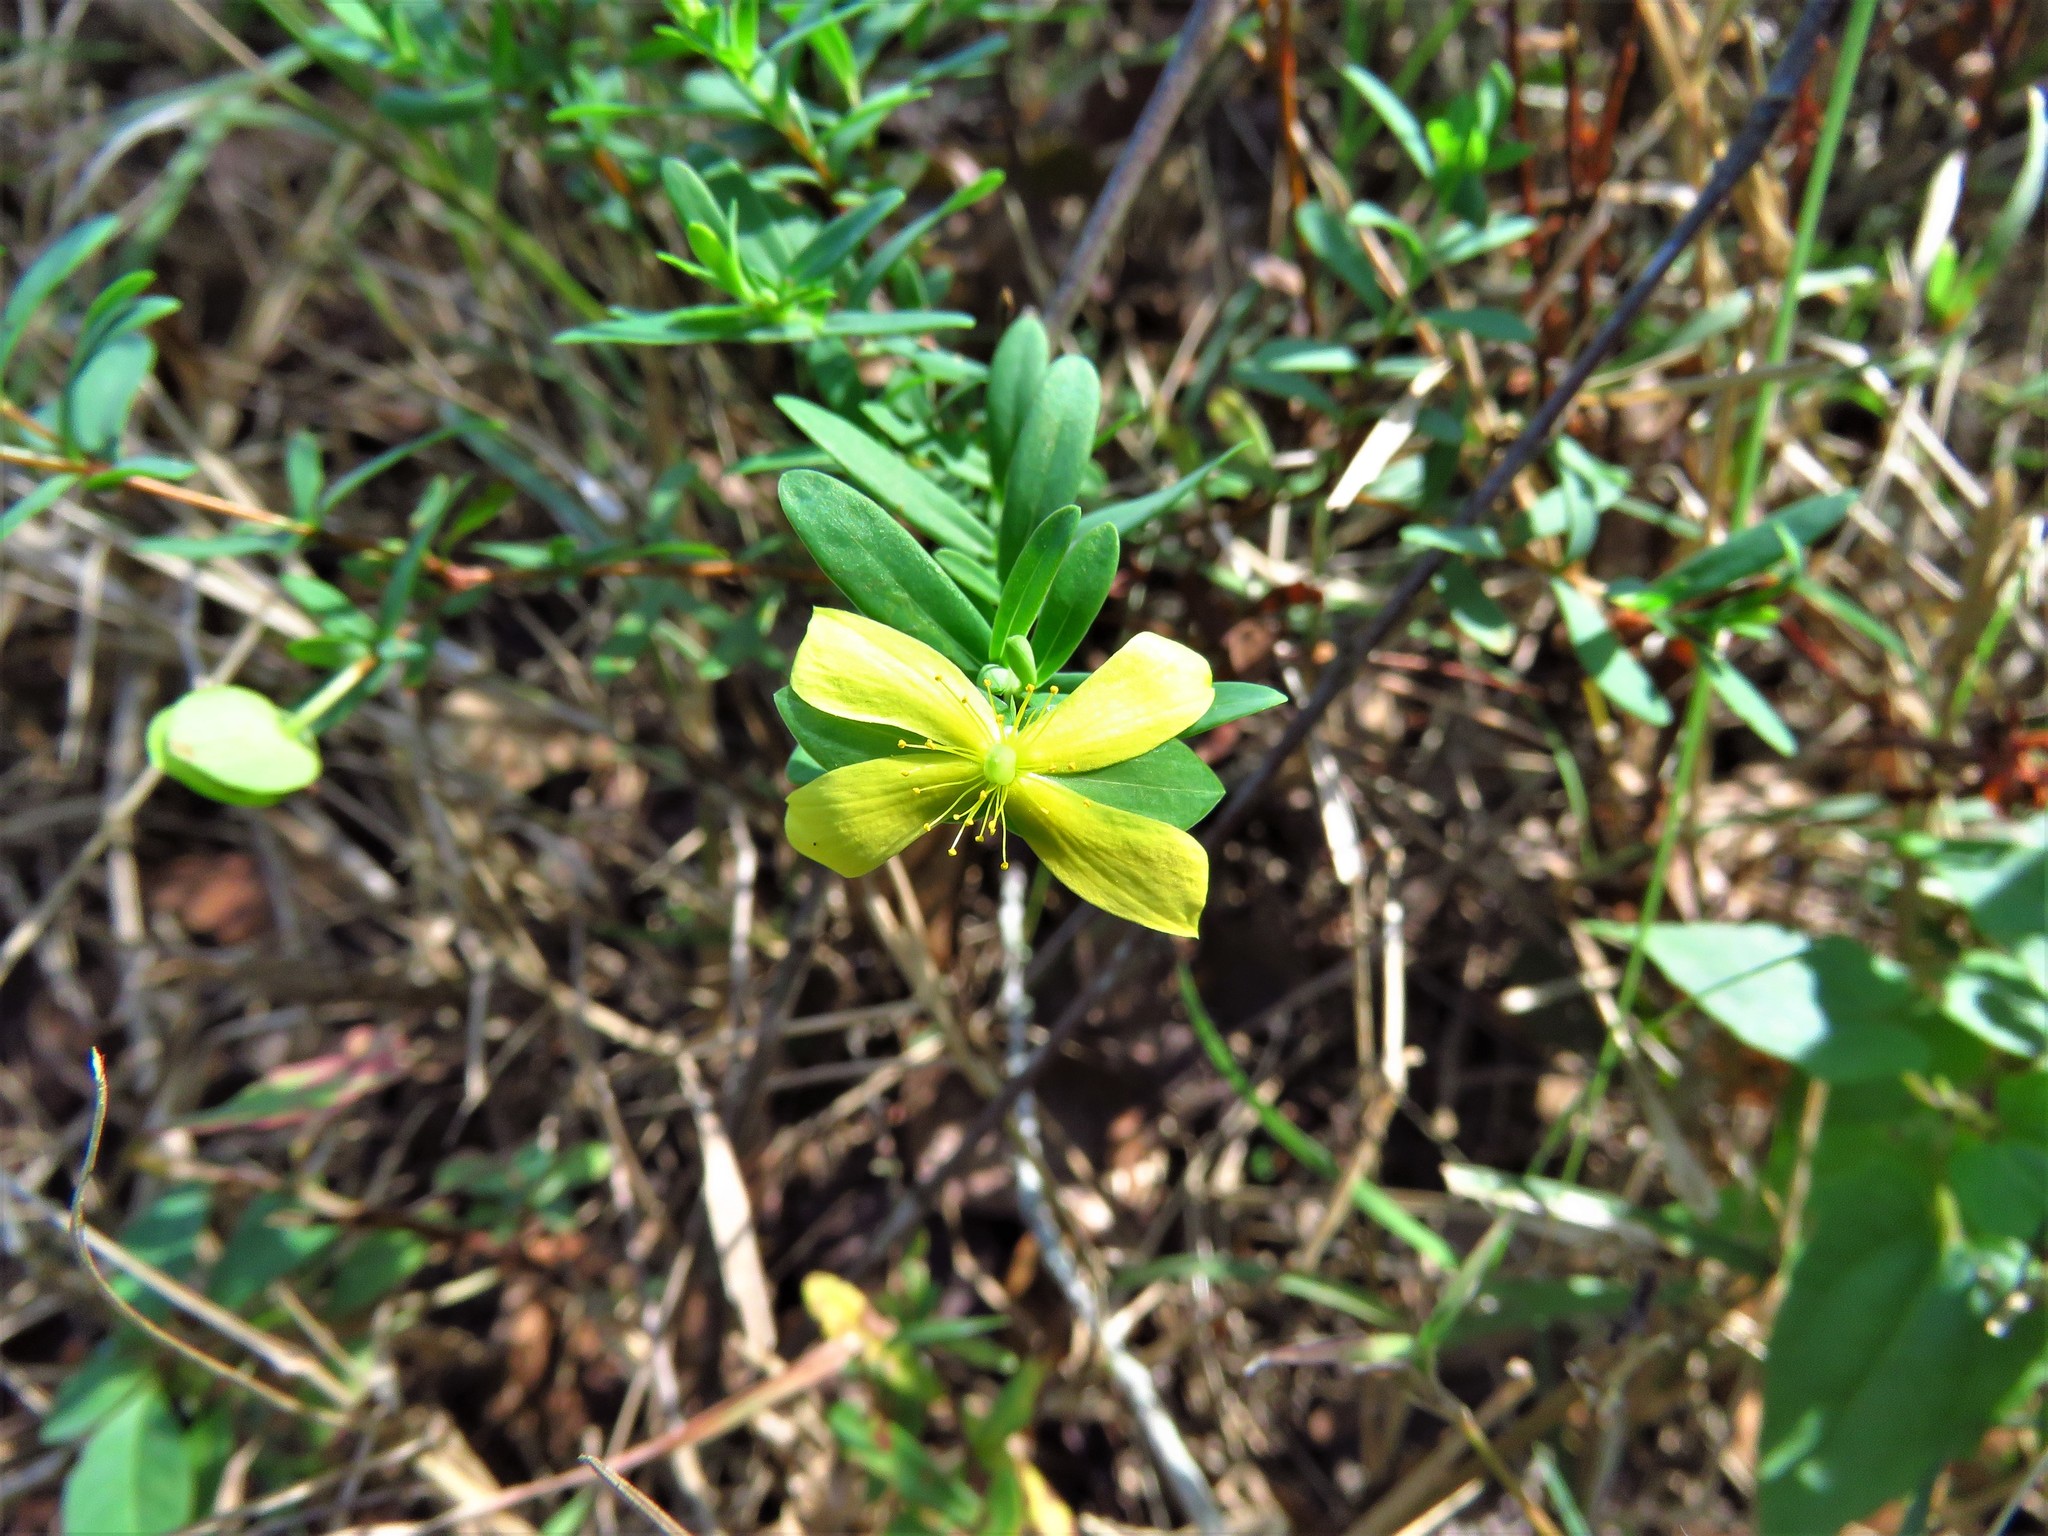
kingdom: Plantae
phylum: Tracheophyta
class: Magnoliopsida
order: Malpighiales
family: Hypericaceae
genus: Hypericum
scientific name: Hypericum hypericoides
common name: St. andrew's cross
